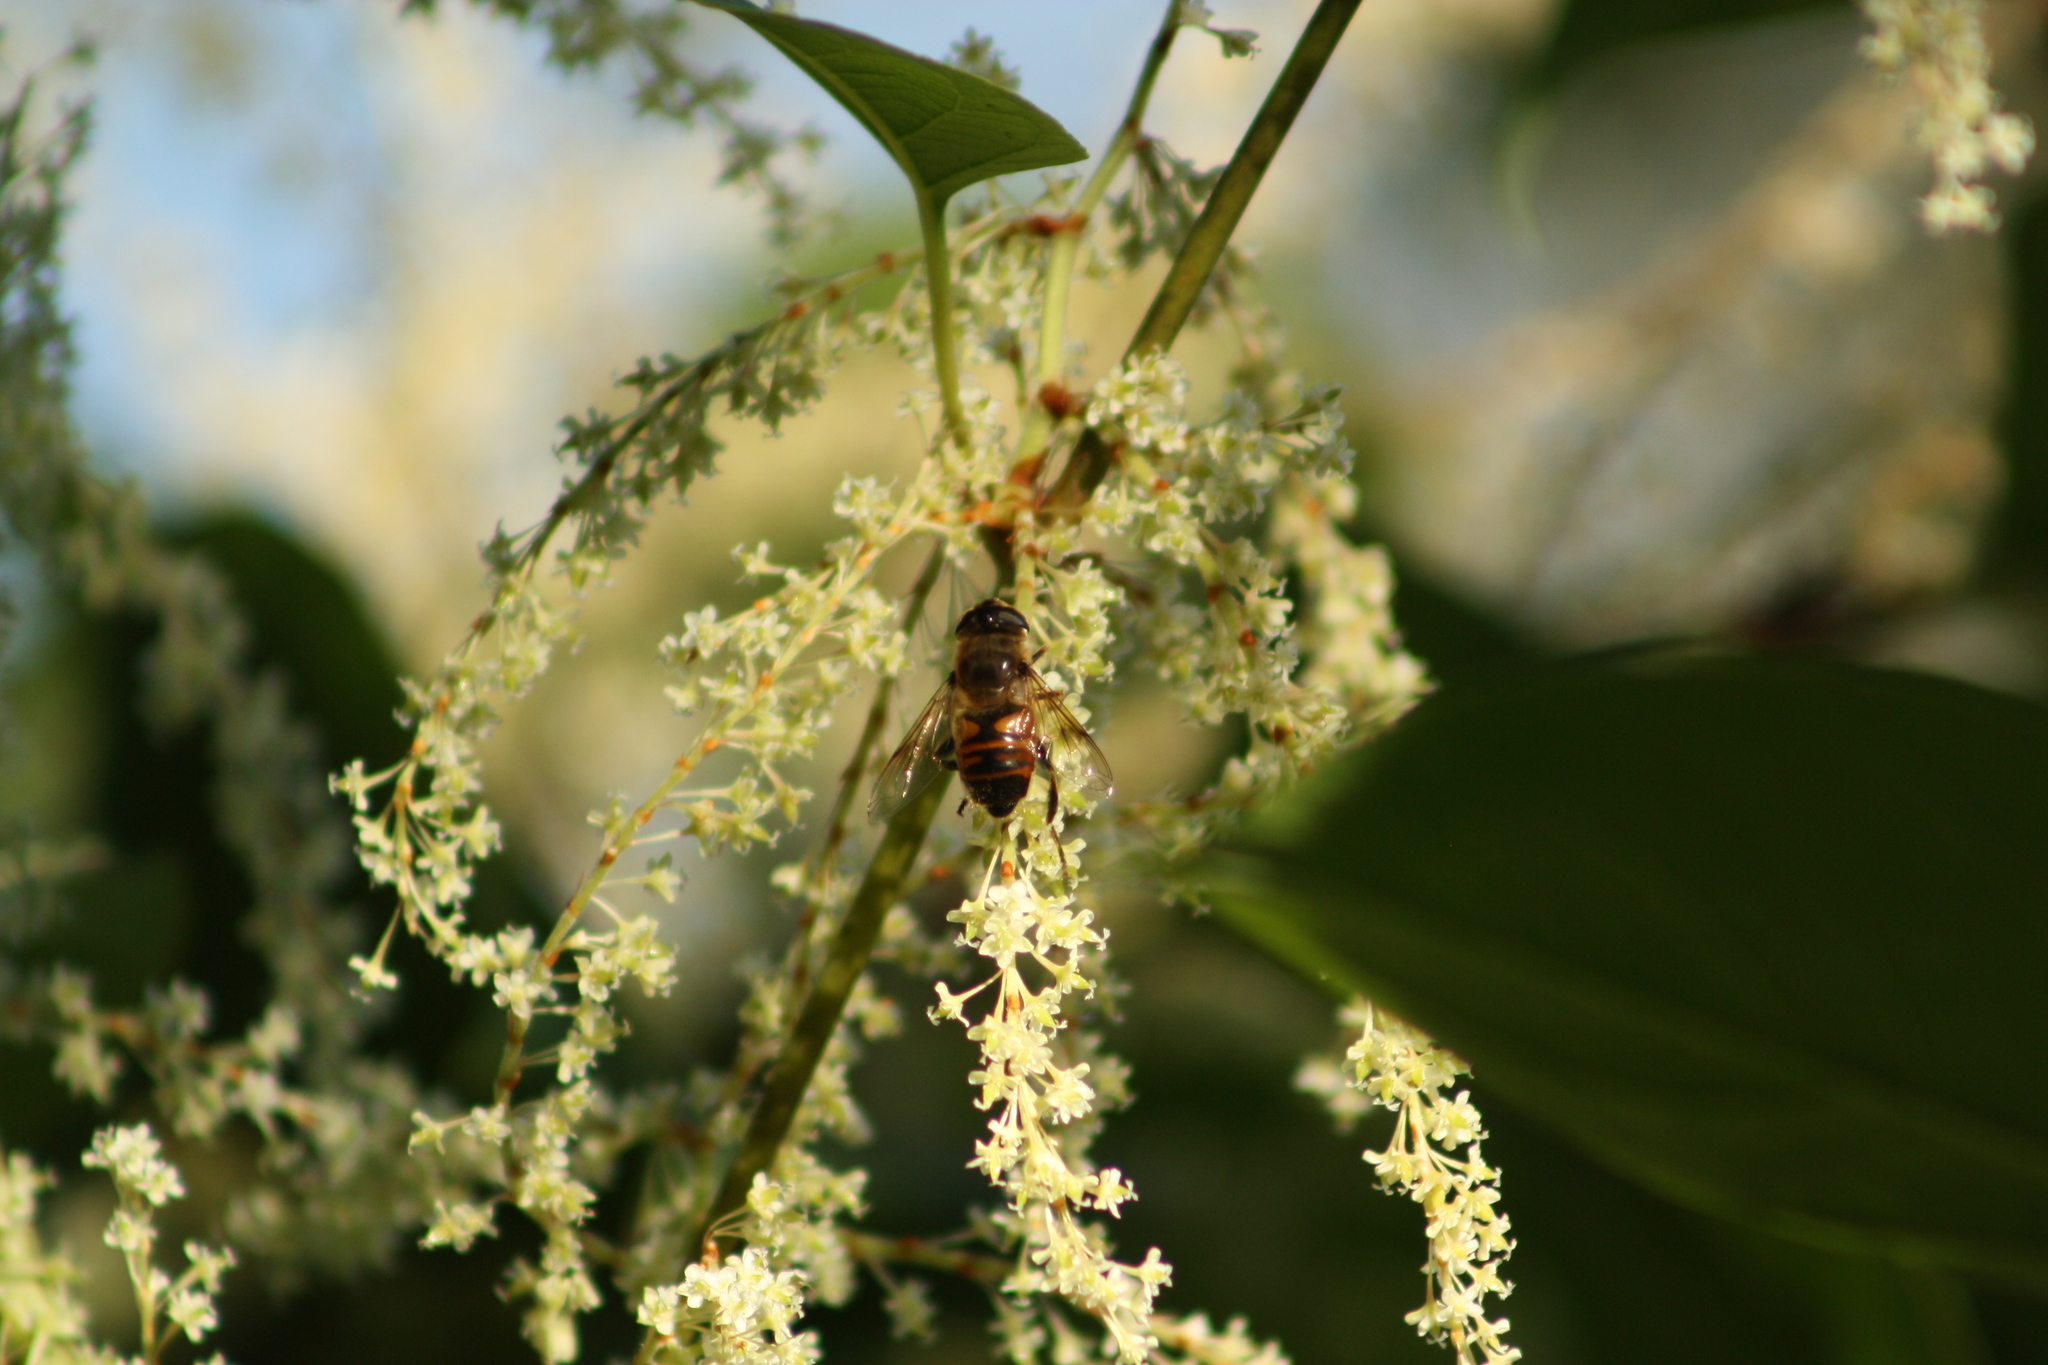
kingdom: Animalia
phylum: Arthropoda
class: Insecta
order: Diptera
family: Syrphidae
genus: Eristalis
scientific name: Eristalis tenax
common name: Drone fly
